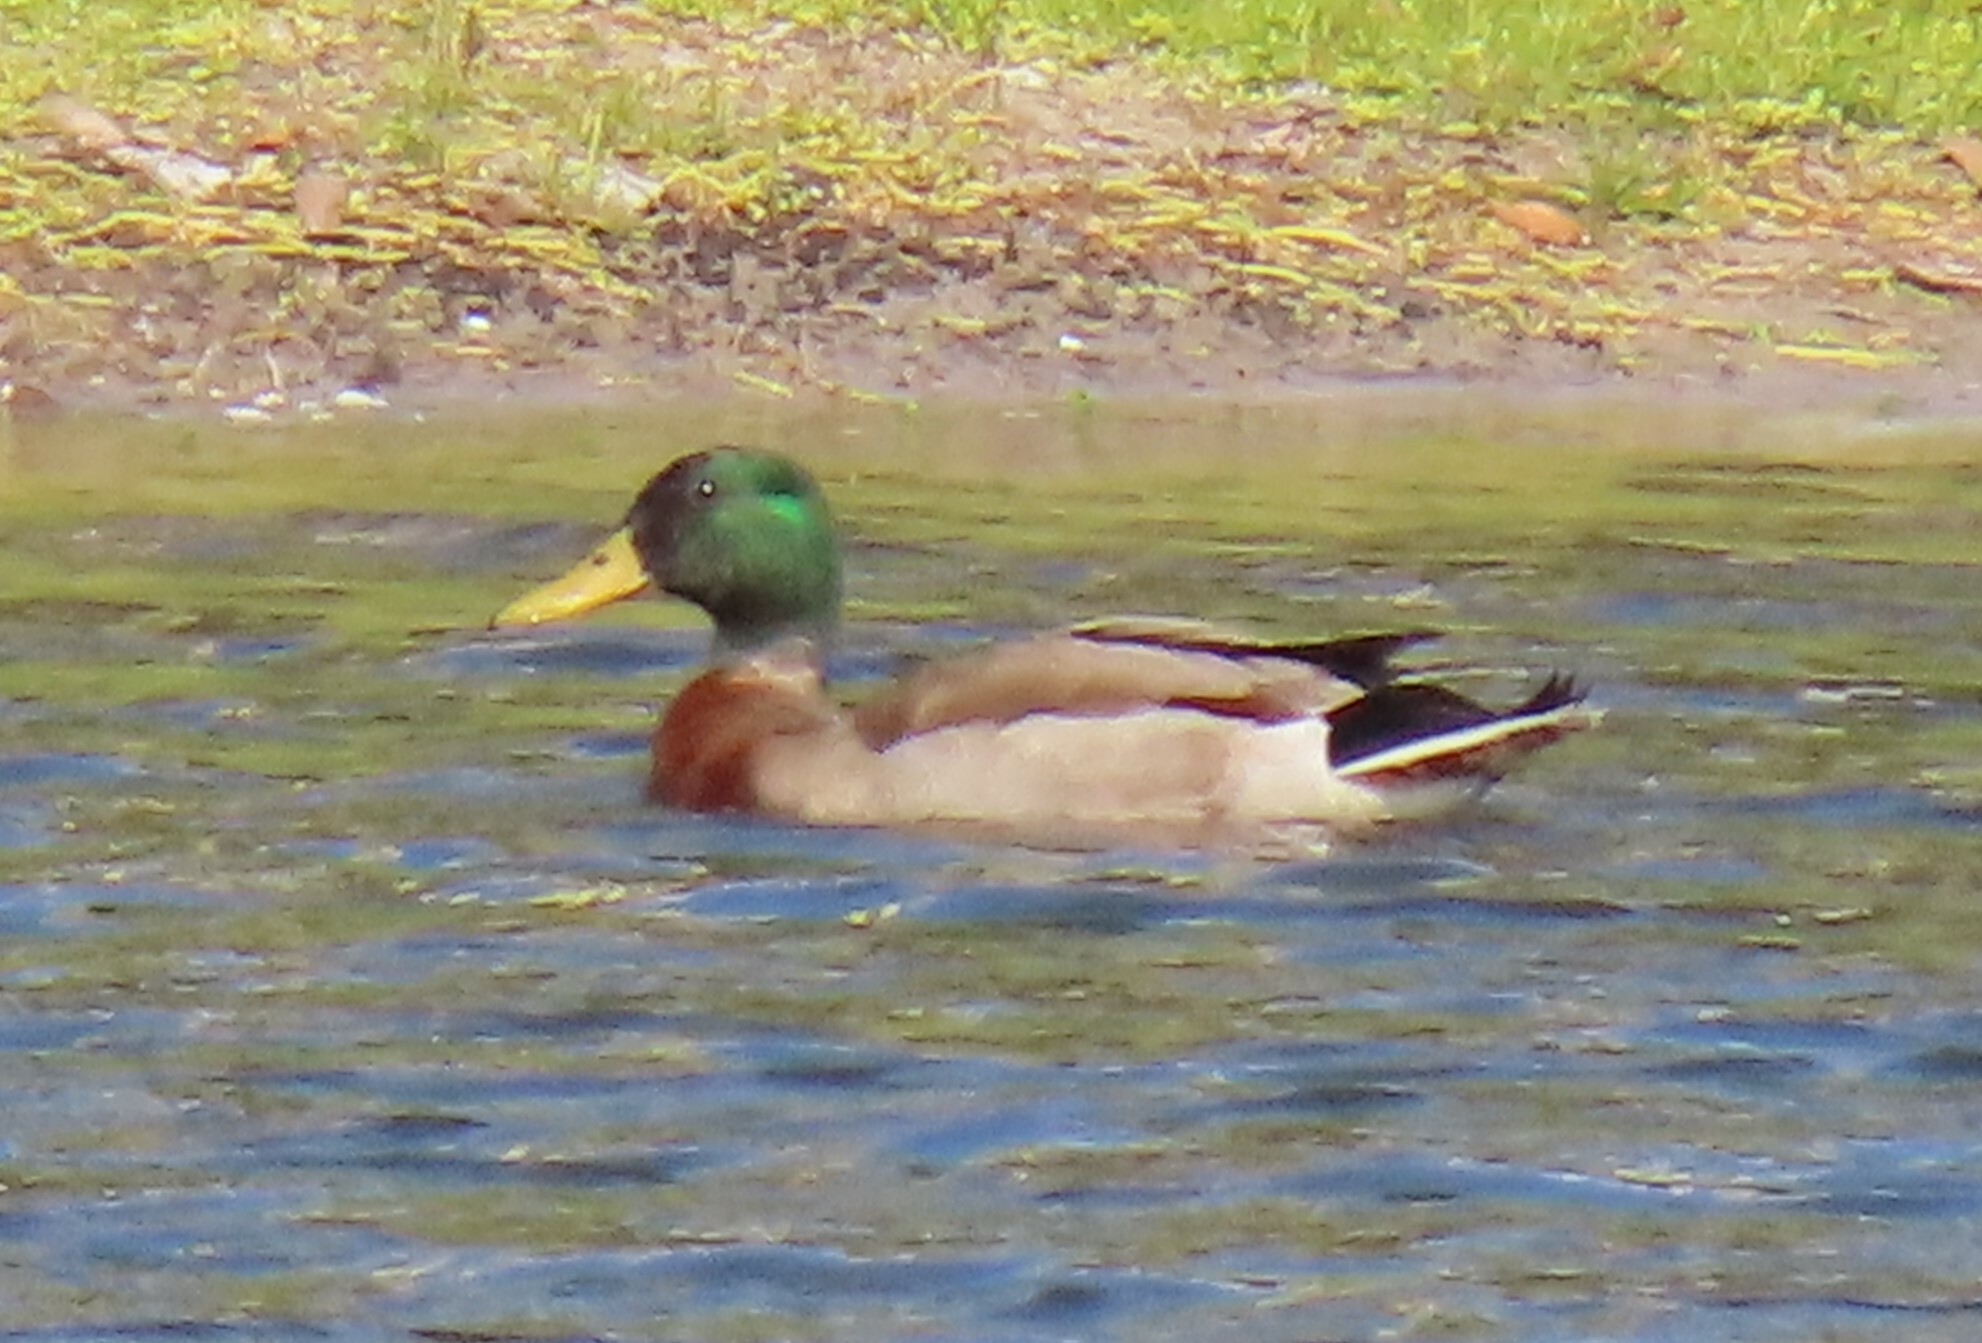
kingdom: Animalia
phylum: Chordata
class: Aves
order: Anseriformes
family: Anatidae
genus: Anas
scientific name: Anas platyrhynchos
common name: Mallard
